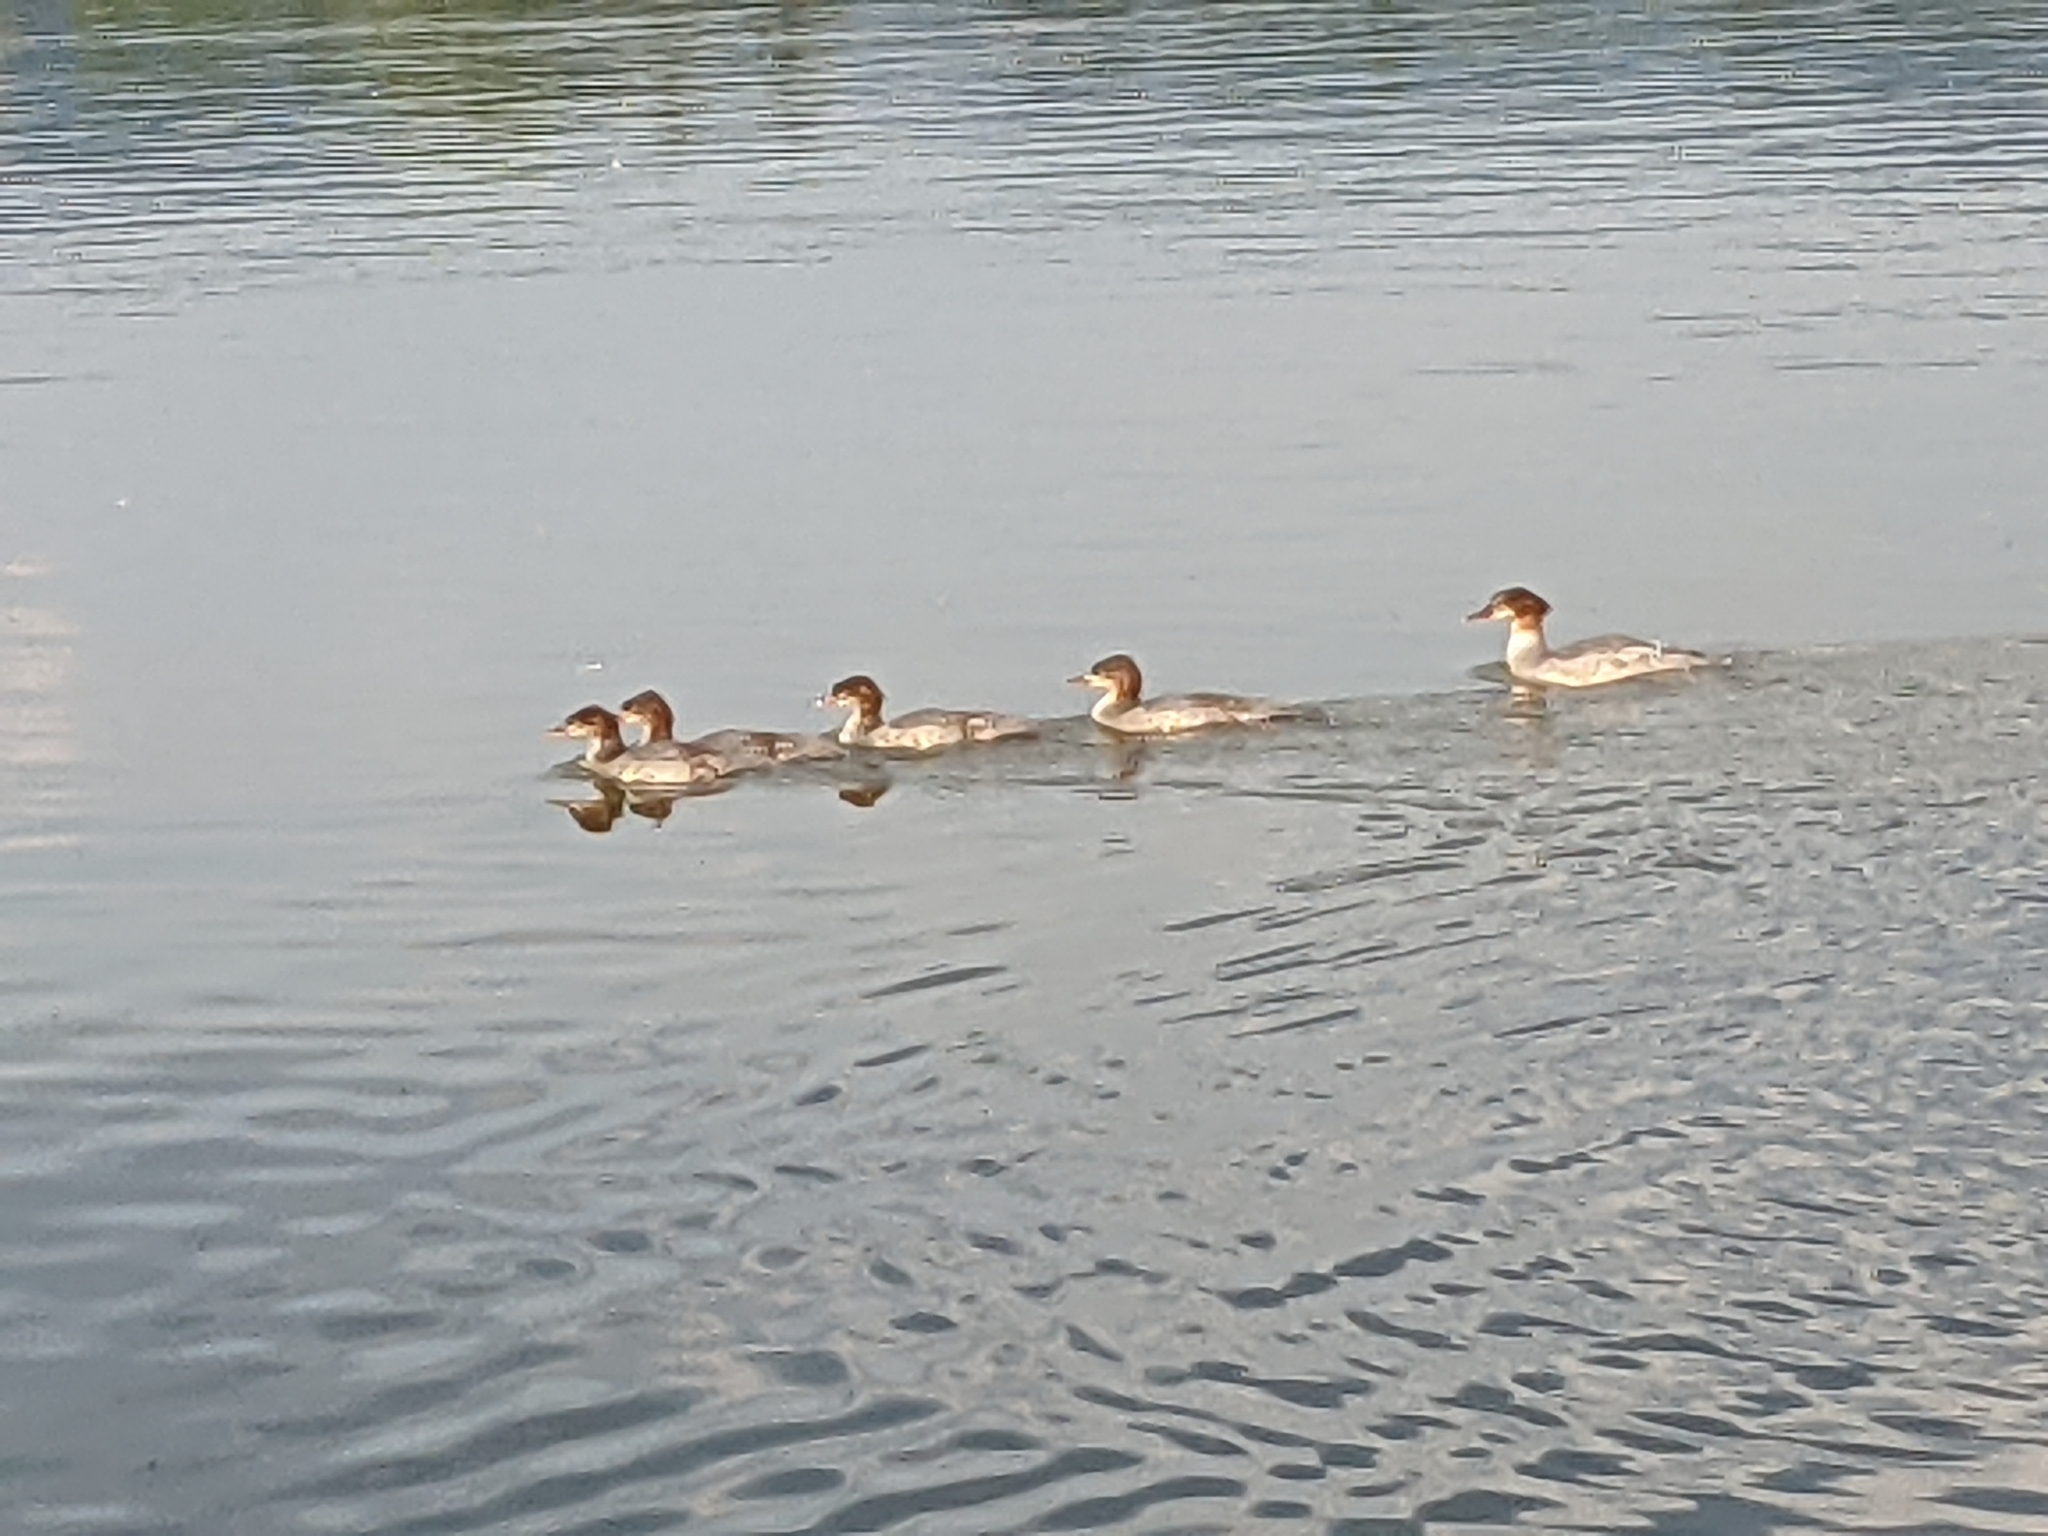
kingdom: Animalia
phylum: Chordata
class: Aves
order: Anseriformes
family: Anatidae
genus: Mergus
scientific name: Mergus merganser
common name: Common merganser
